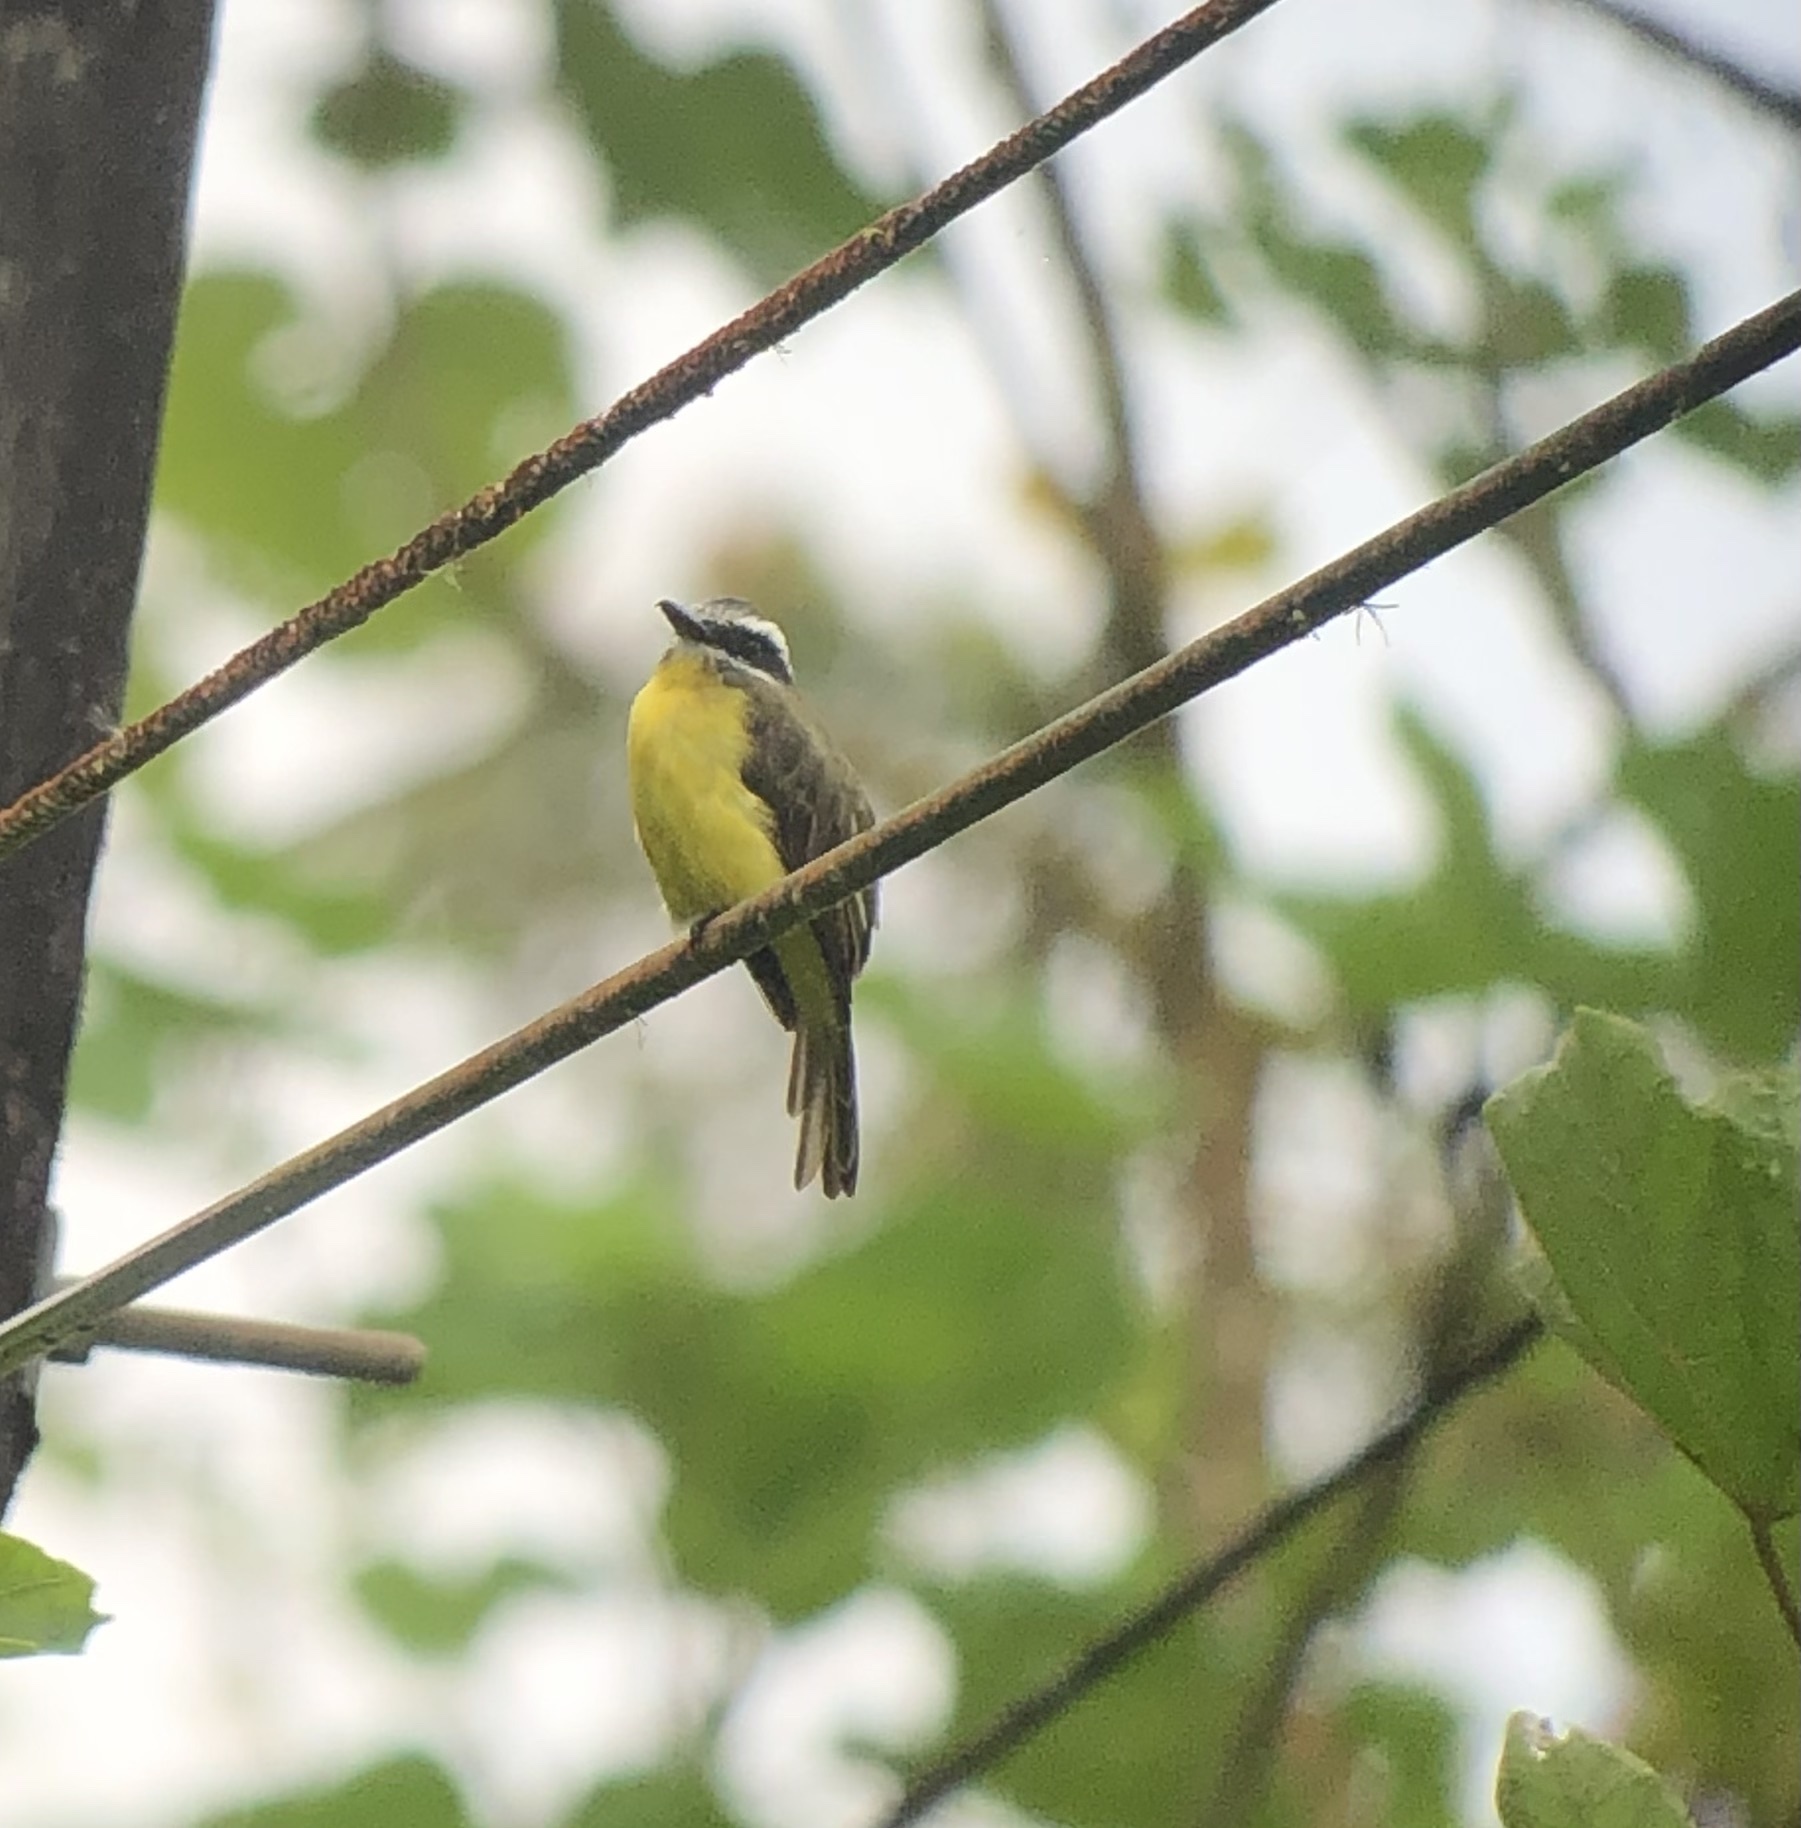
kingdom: Animalia
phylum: Chordata
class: Aves
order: Passeriformes
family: Tyrannidae
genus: Myiodynastes
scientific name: Myiodynastes hemichrysus
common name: Golden-bellied flycatcher
